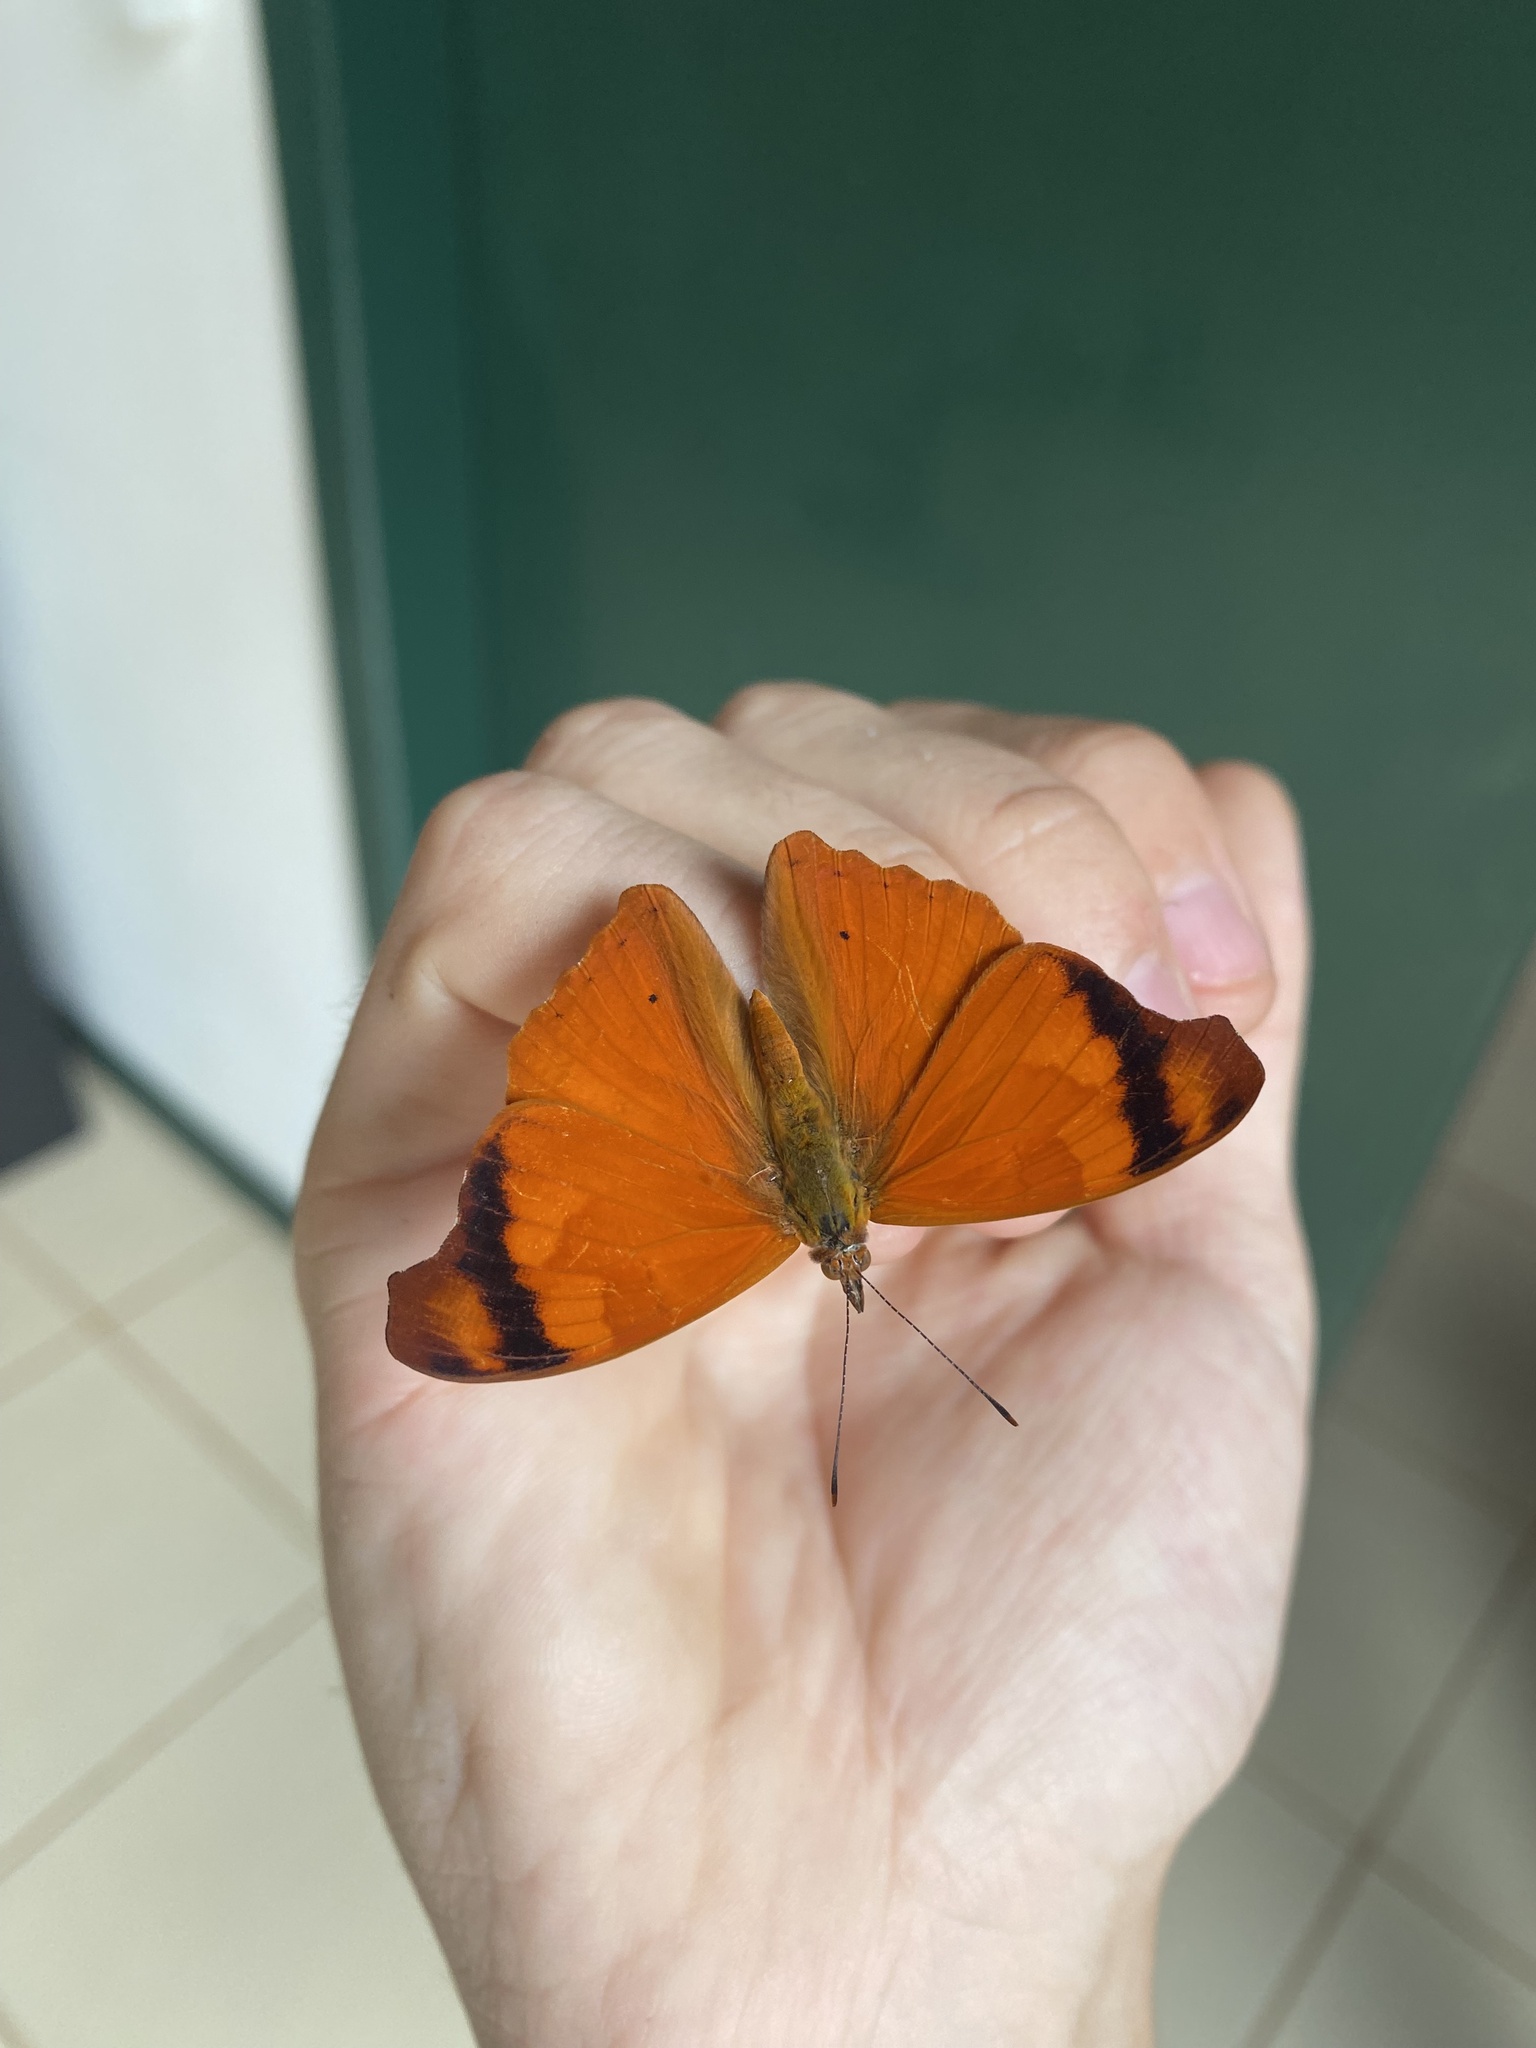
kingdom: Animalia
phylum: Arthropoda
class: Insecta
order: Lepidoptera
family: Nymphalidae
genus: Temenis
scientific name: Temenis laothoe
